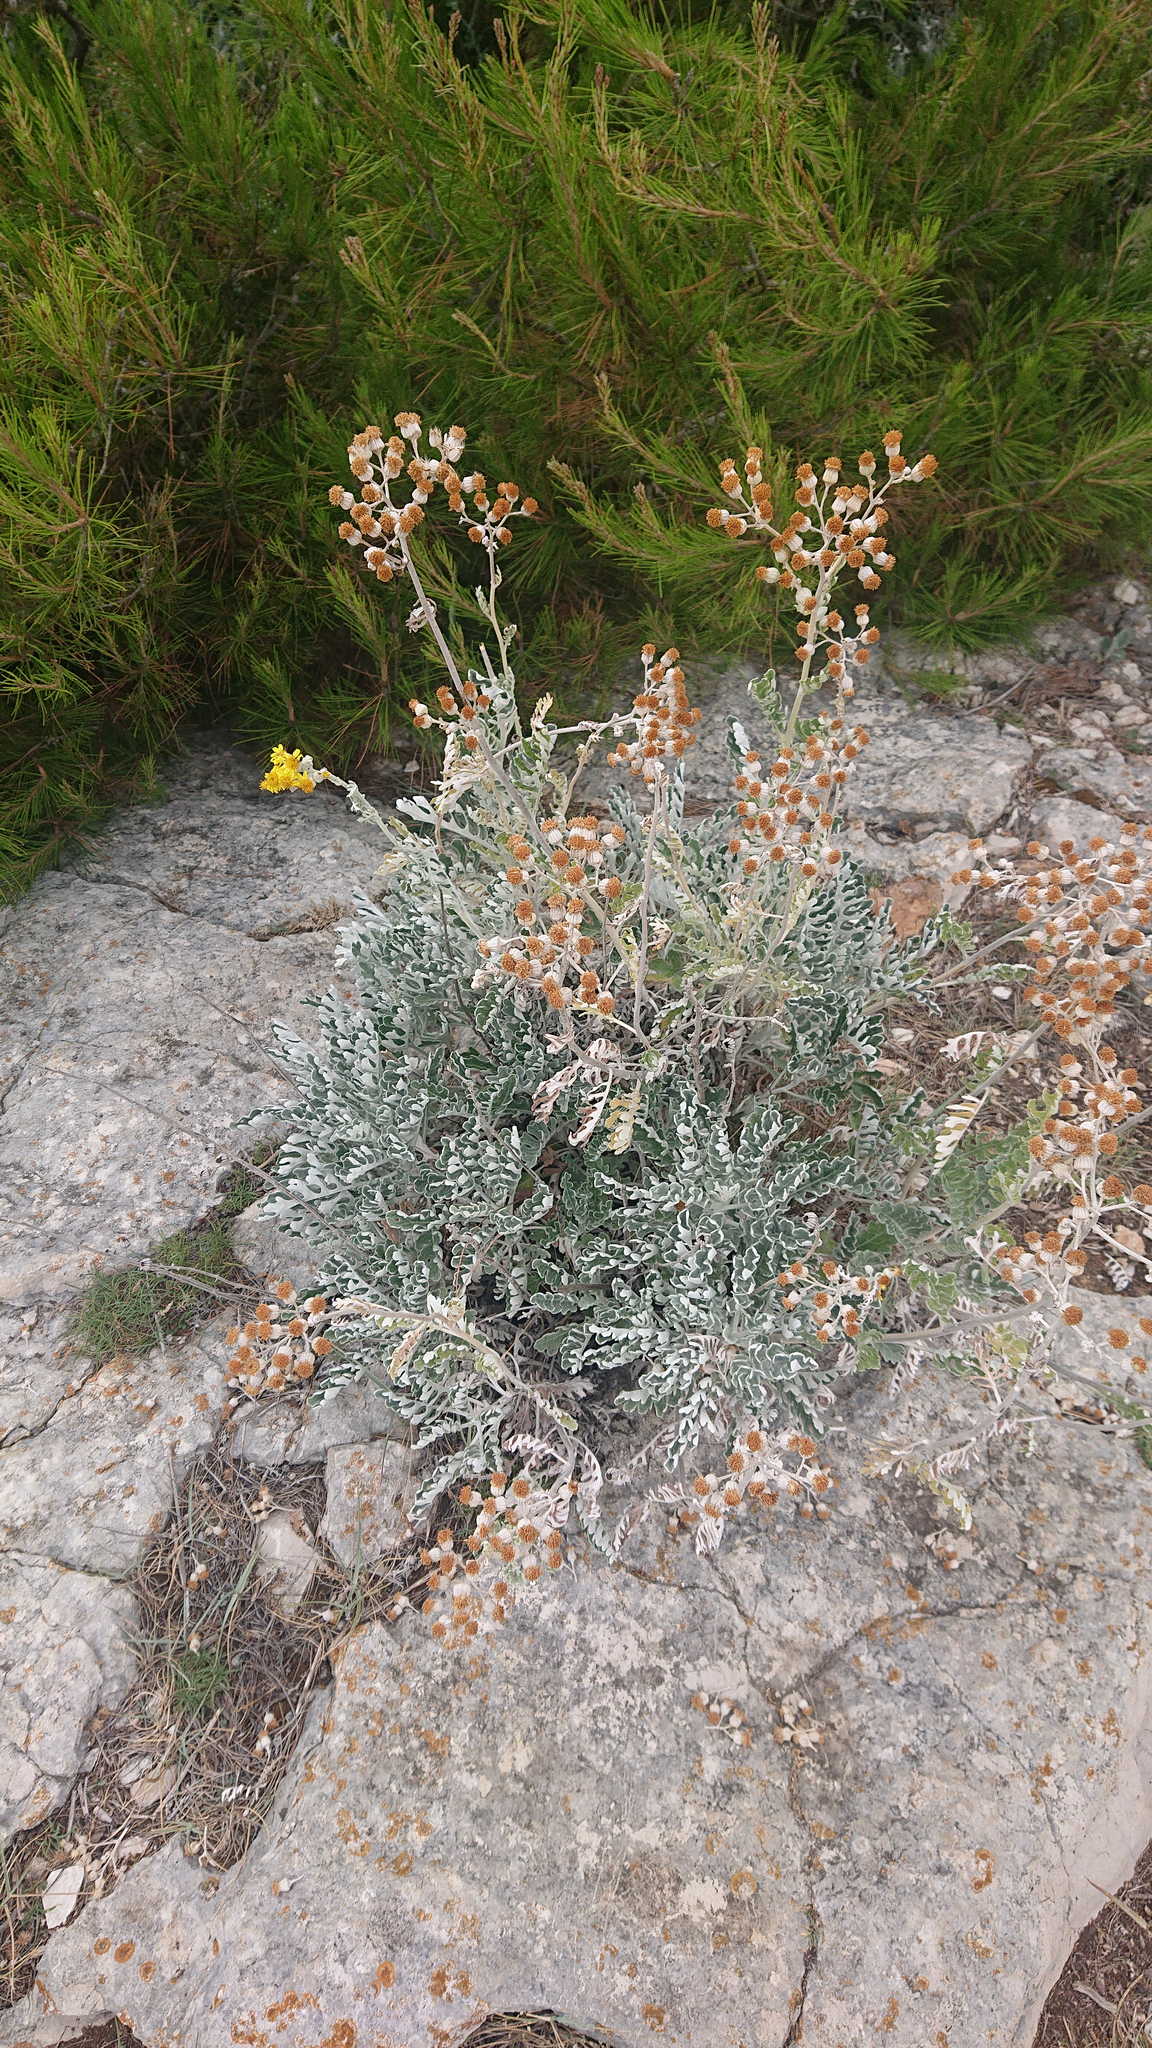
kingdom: Plantae
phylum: Tracheophyta
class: Magnoliopsida
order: Asterales
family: Asteraceae
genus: Jacobaea
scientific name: Jacobaea maritima
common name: Silver ragwort
